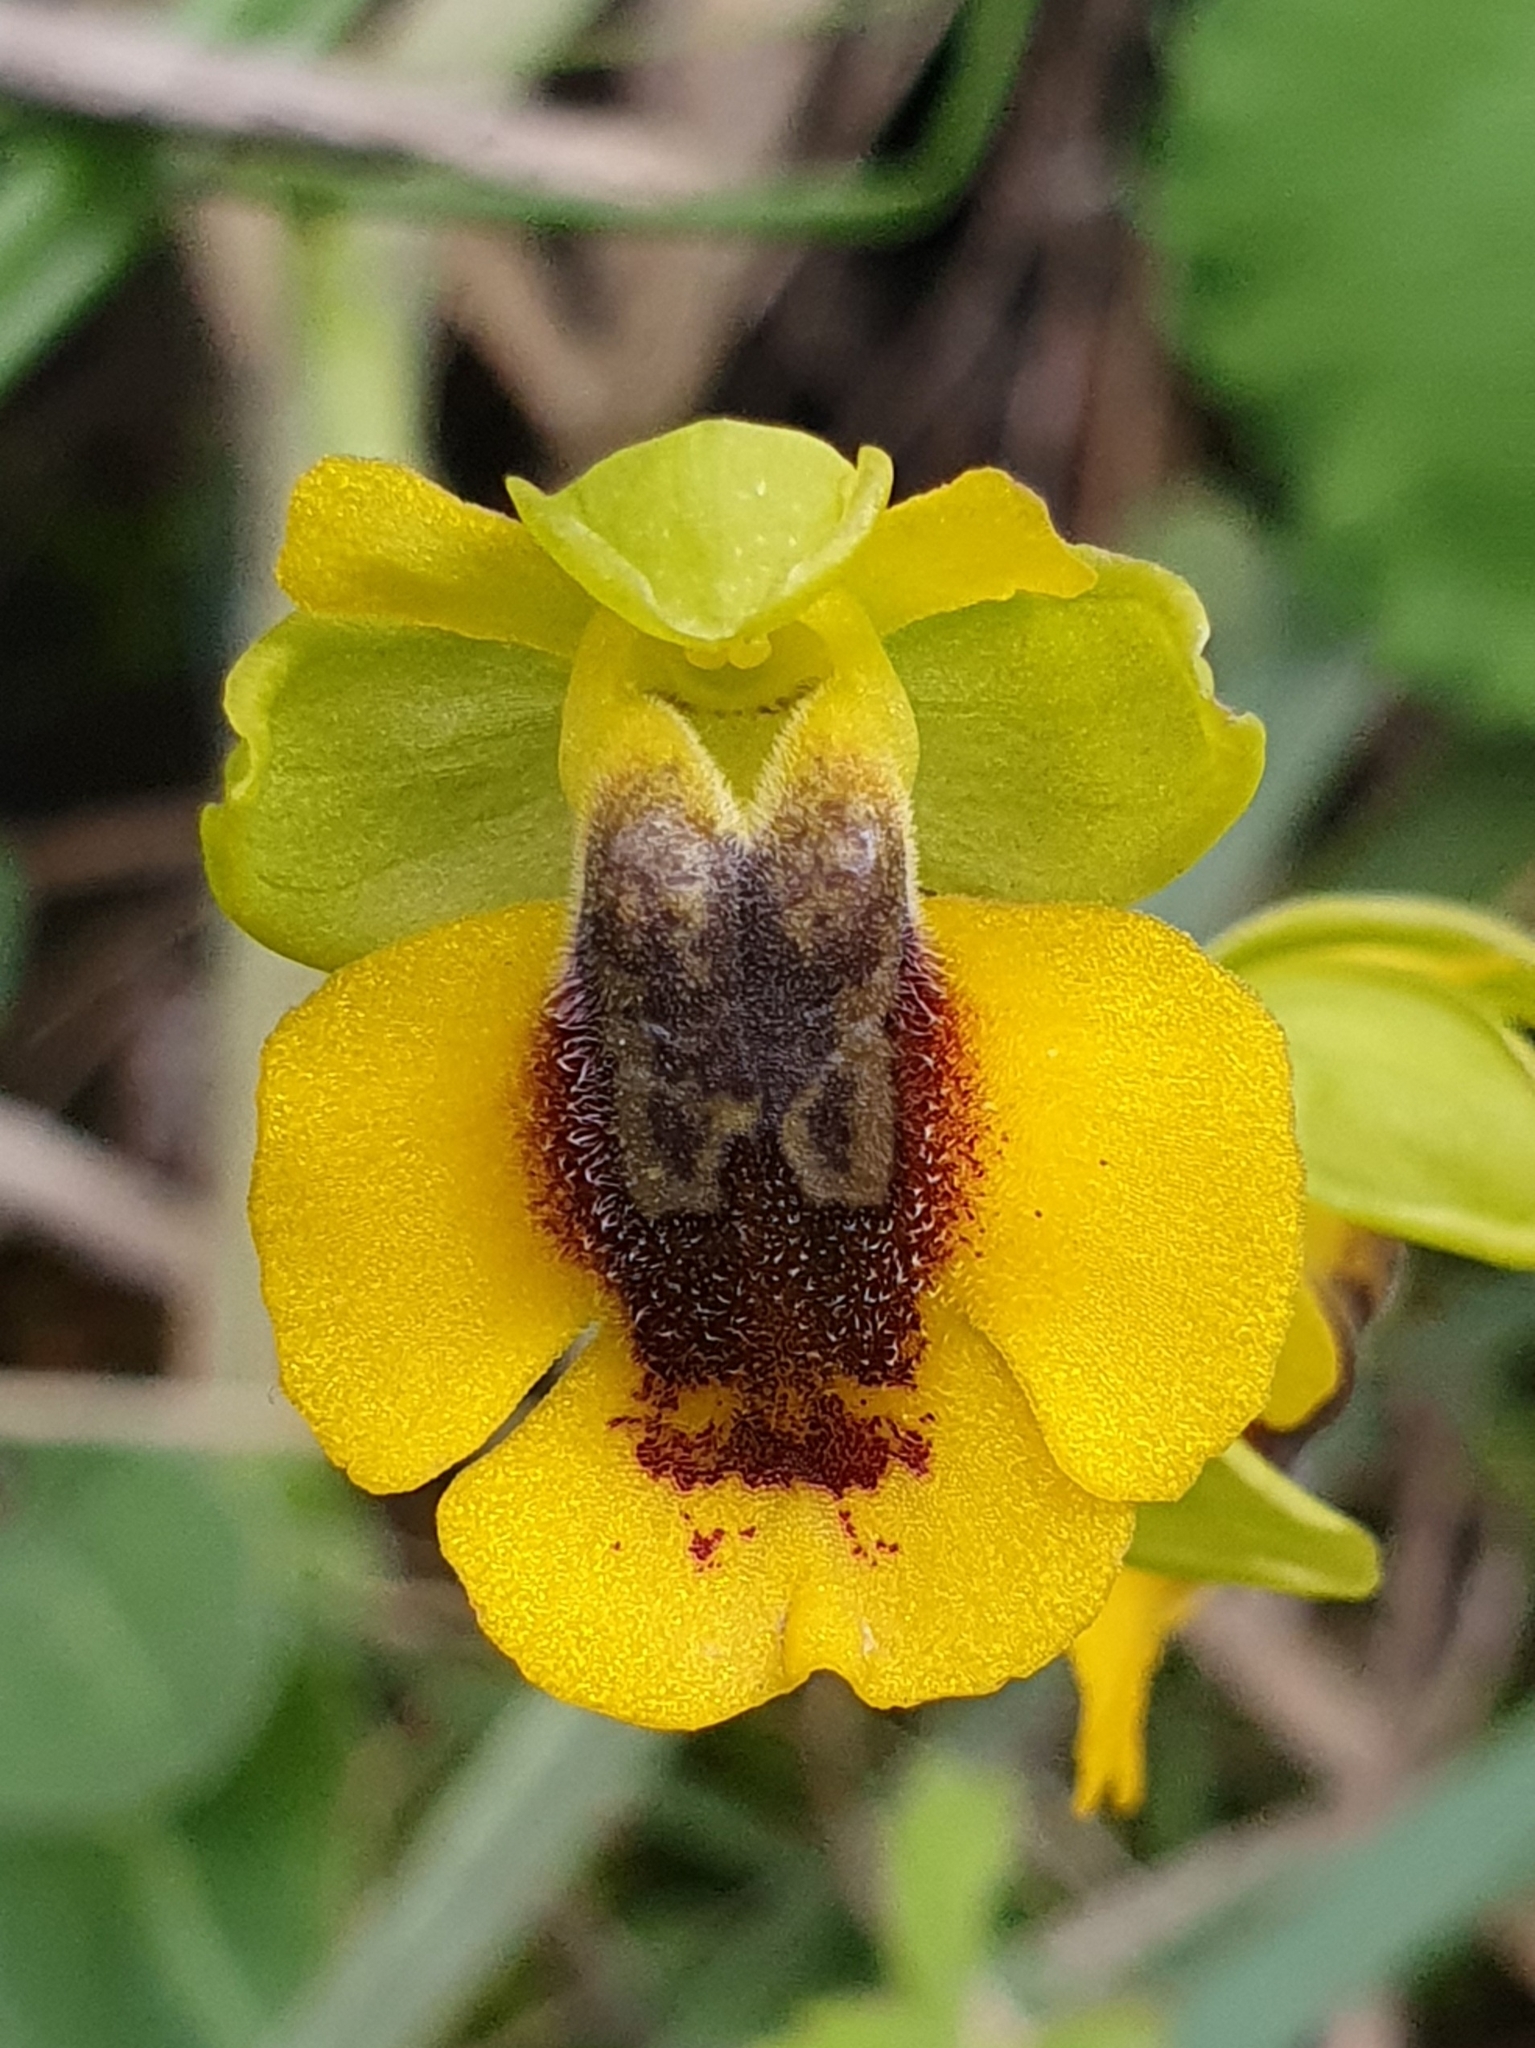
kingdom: Plantae
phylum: Tracheophyta
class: Liliopsida
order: Asparagales
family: Orchidaceae
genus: Ophrys
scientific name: Ophrys lutea
